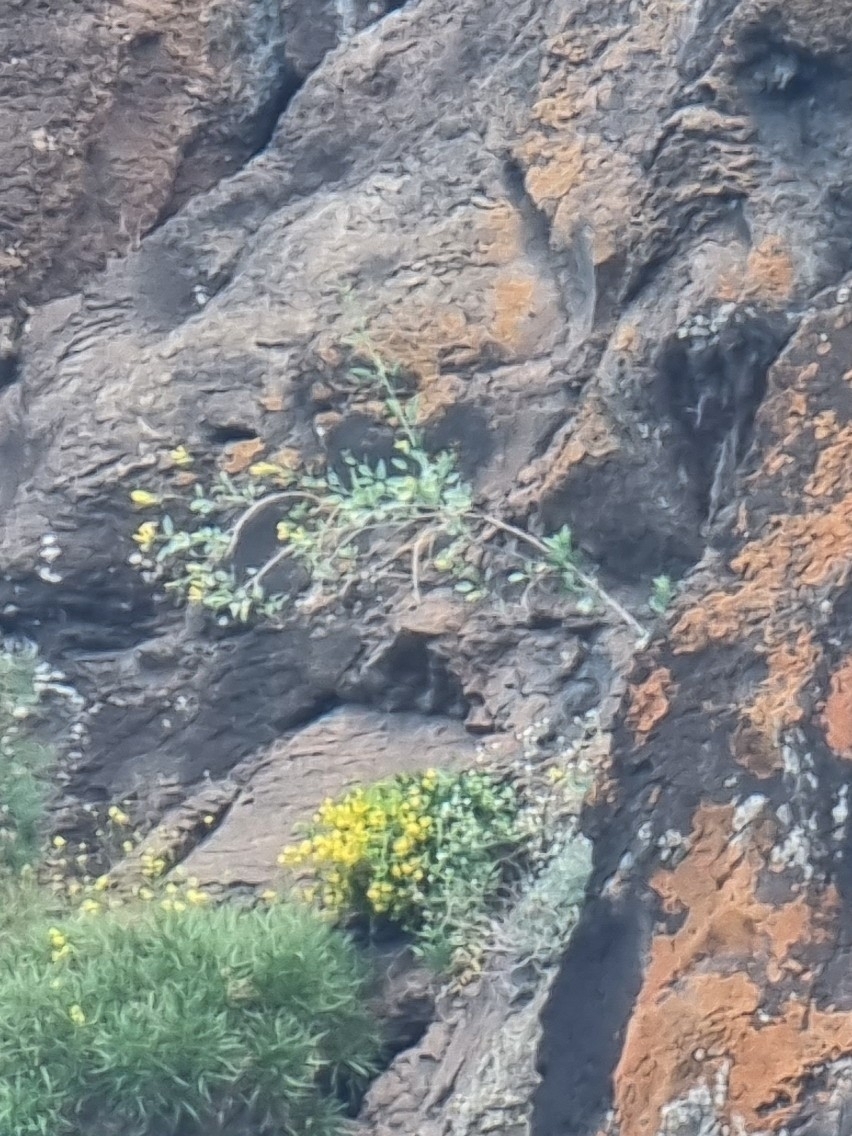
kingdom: Plantae
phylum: Tracheophyta
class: Magnoliopsida
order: Solanales
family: Solanaceae
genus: Nicotiana
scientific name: Nicotiana glauca
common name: Tree tobacco
